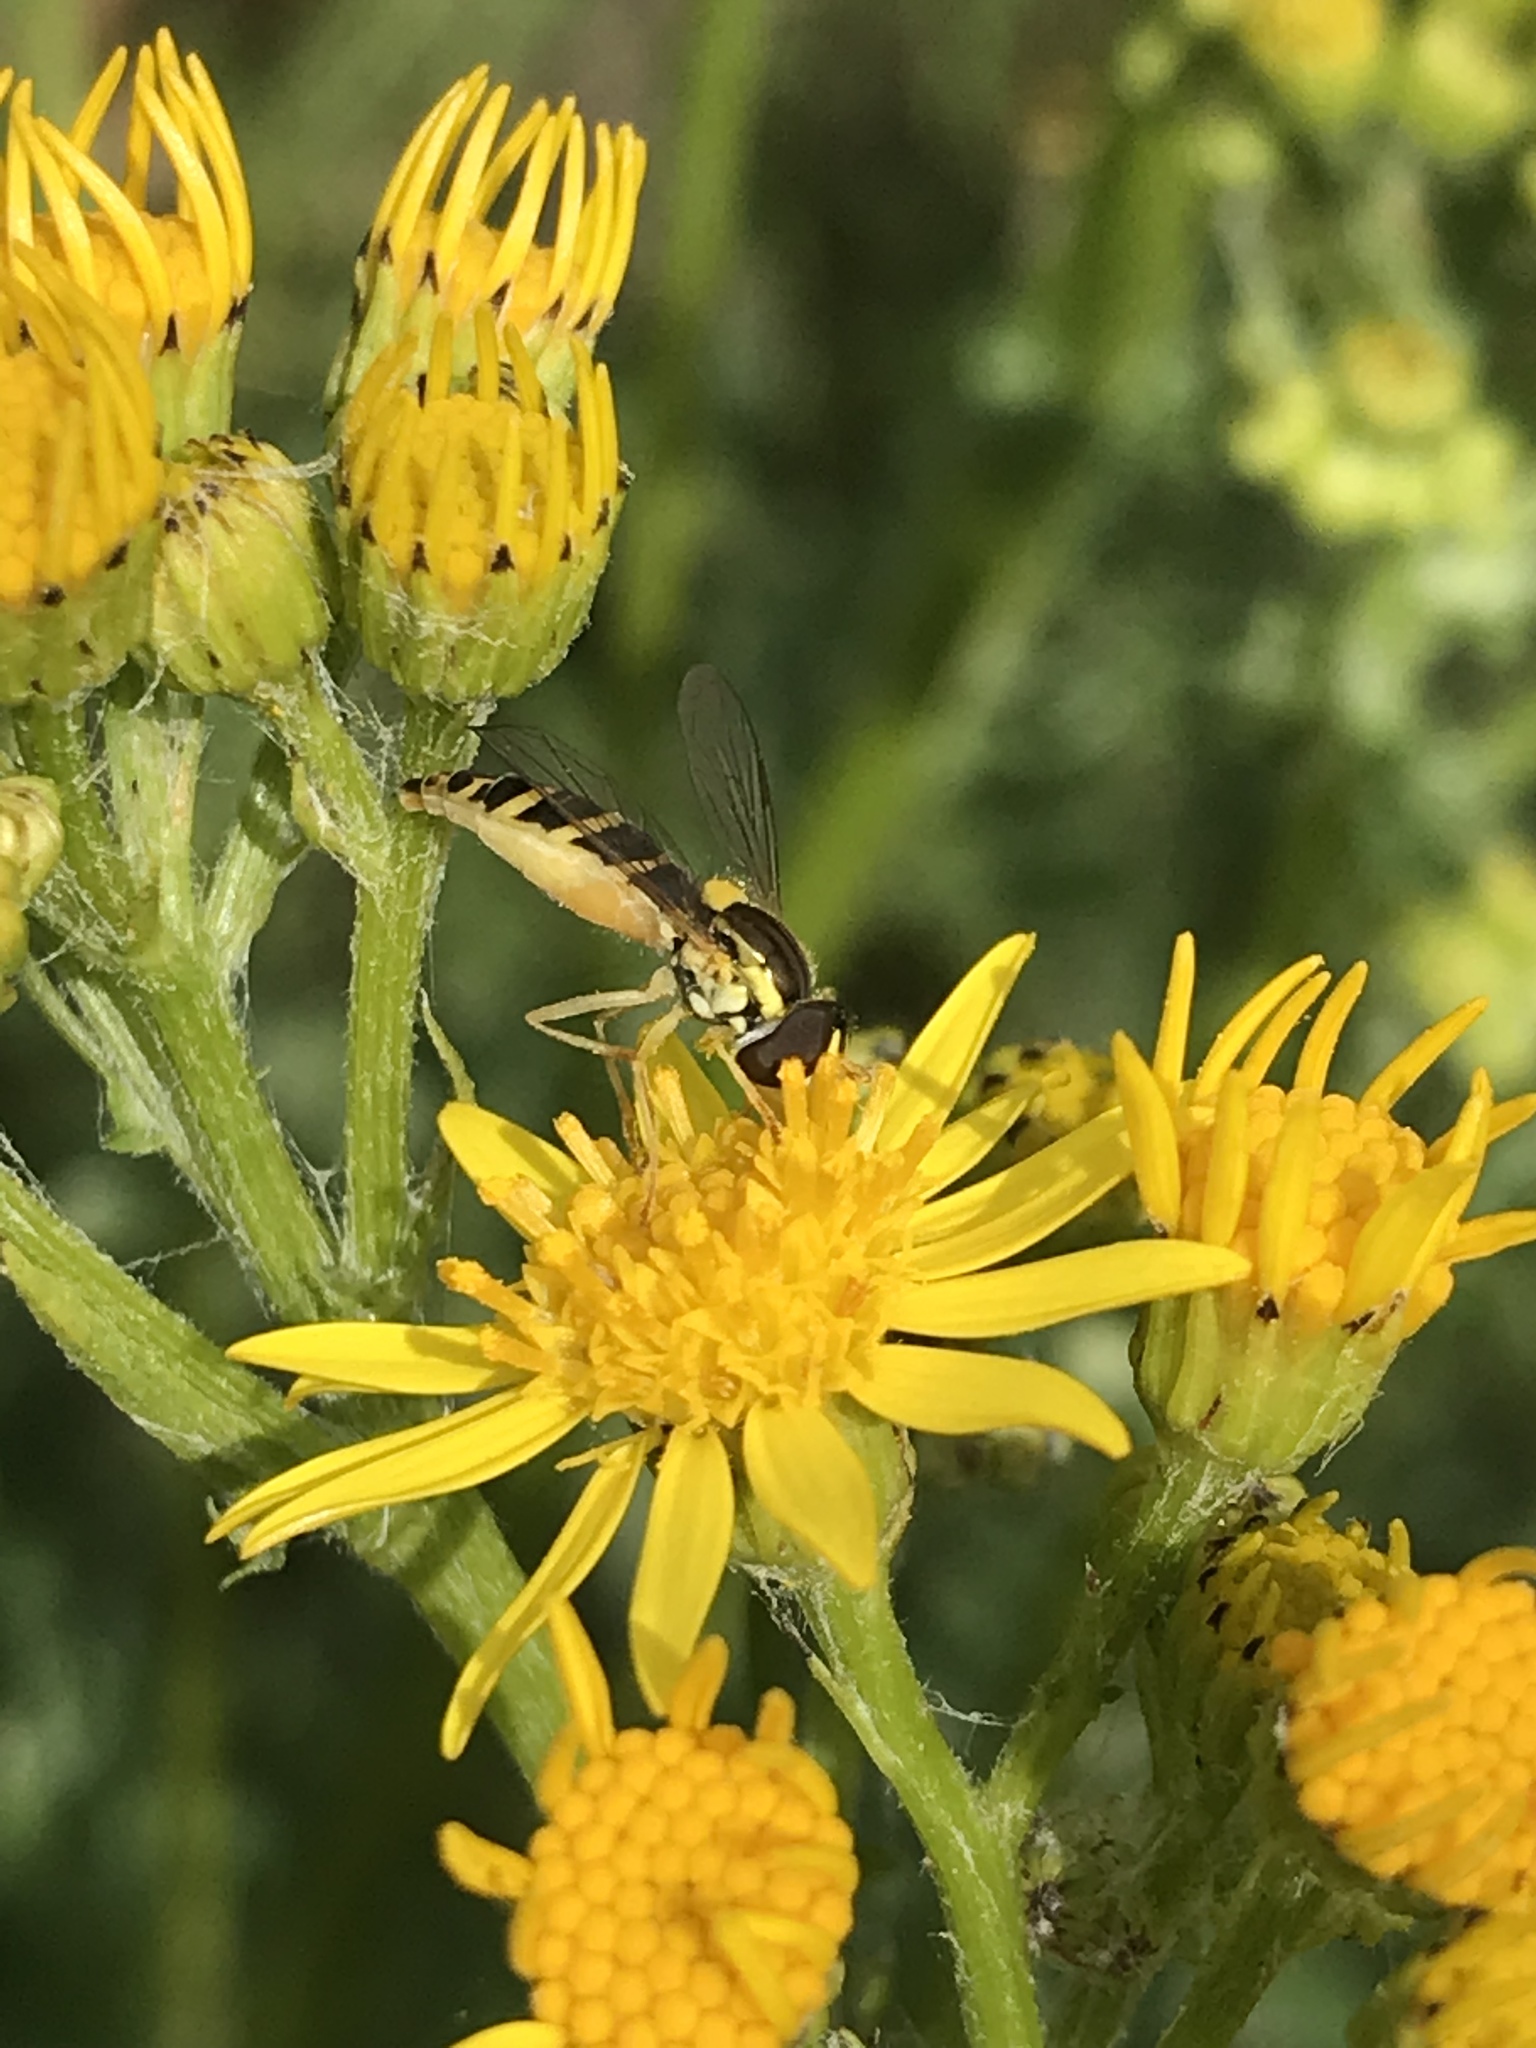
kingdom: Animalia
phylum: Arthropoda
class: Insecta
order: Diptera
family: Syrphidae
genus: Sphaerophoria
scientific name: Sphaerophoria
